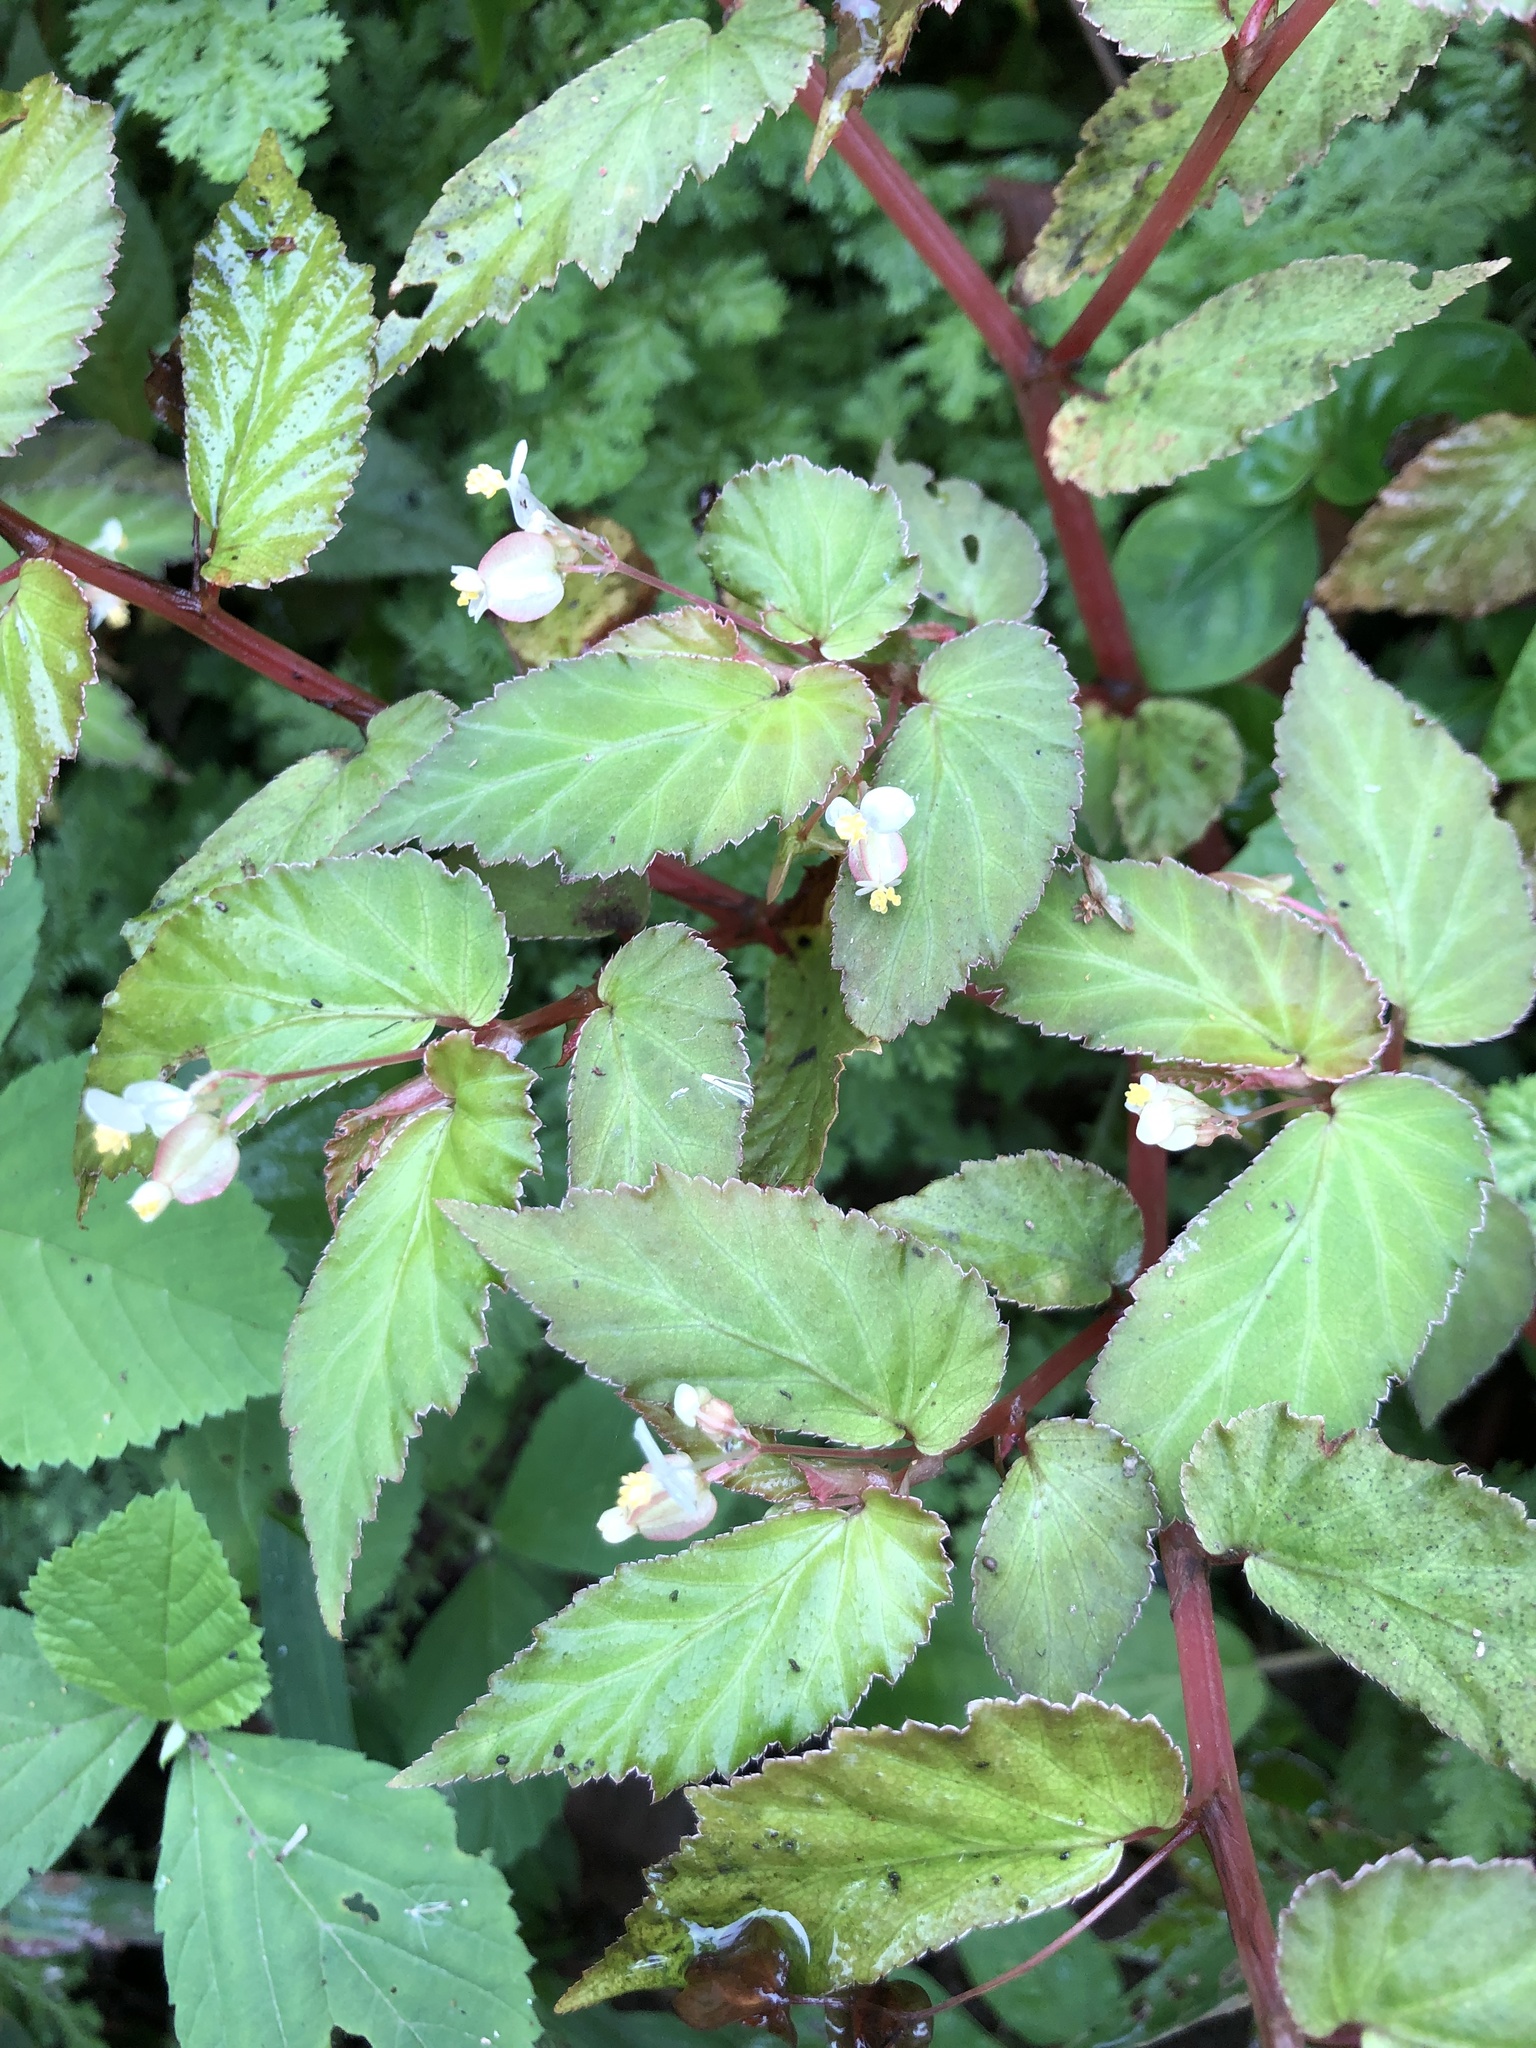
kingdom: Plantae
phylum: Tracheophyta
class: Magnoliopsida
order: Cucurbitales
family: Begoniaceae
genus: Begonia
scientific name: Begonia semiovata
